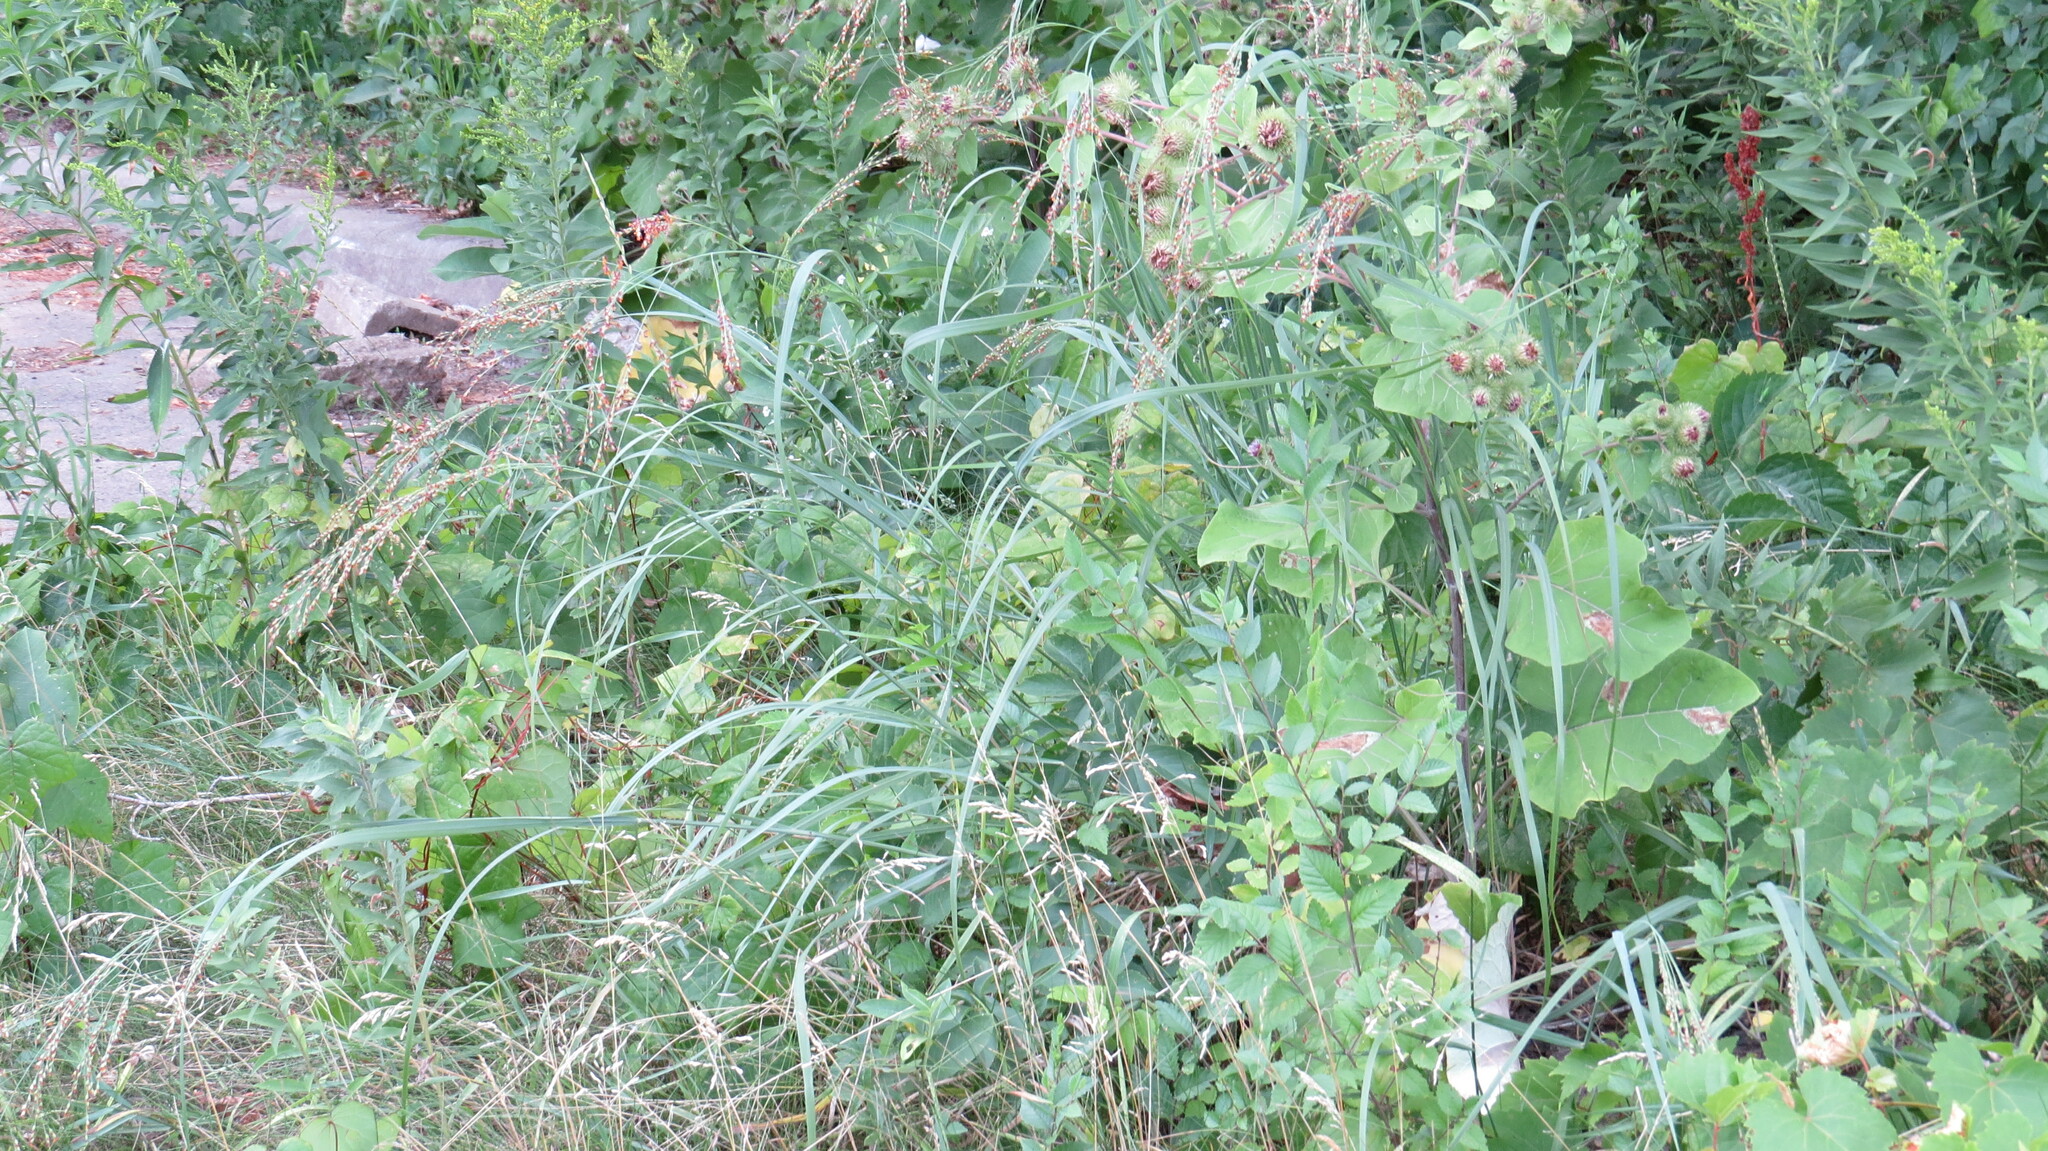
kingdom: Plantae
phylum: Tracheophyta
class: Liliopsida
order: Poales
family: Poaceae
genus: Panicum
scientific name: Panicum virgatum
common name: Switchgrass
